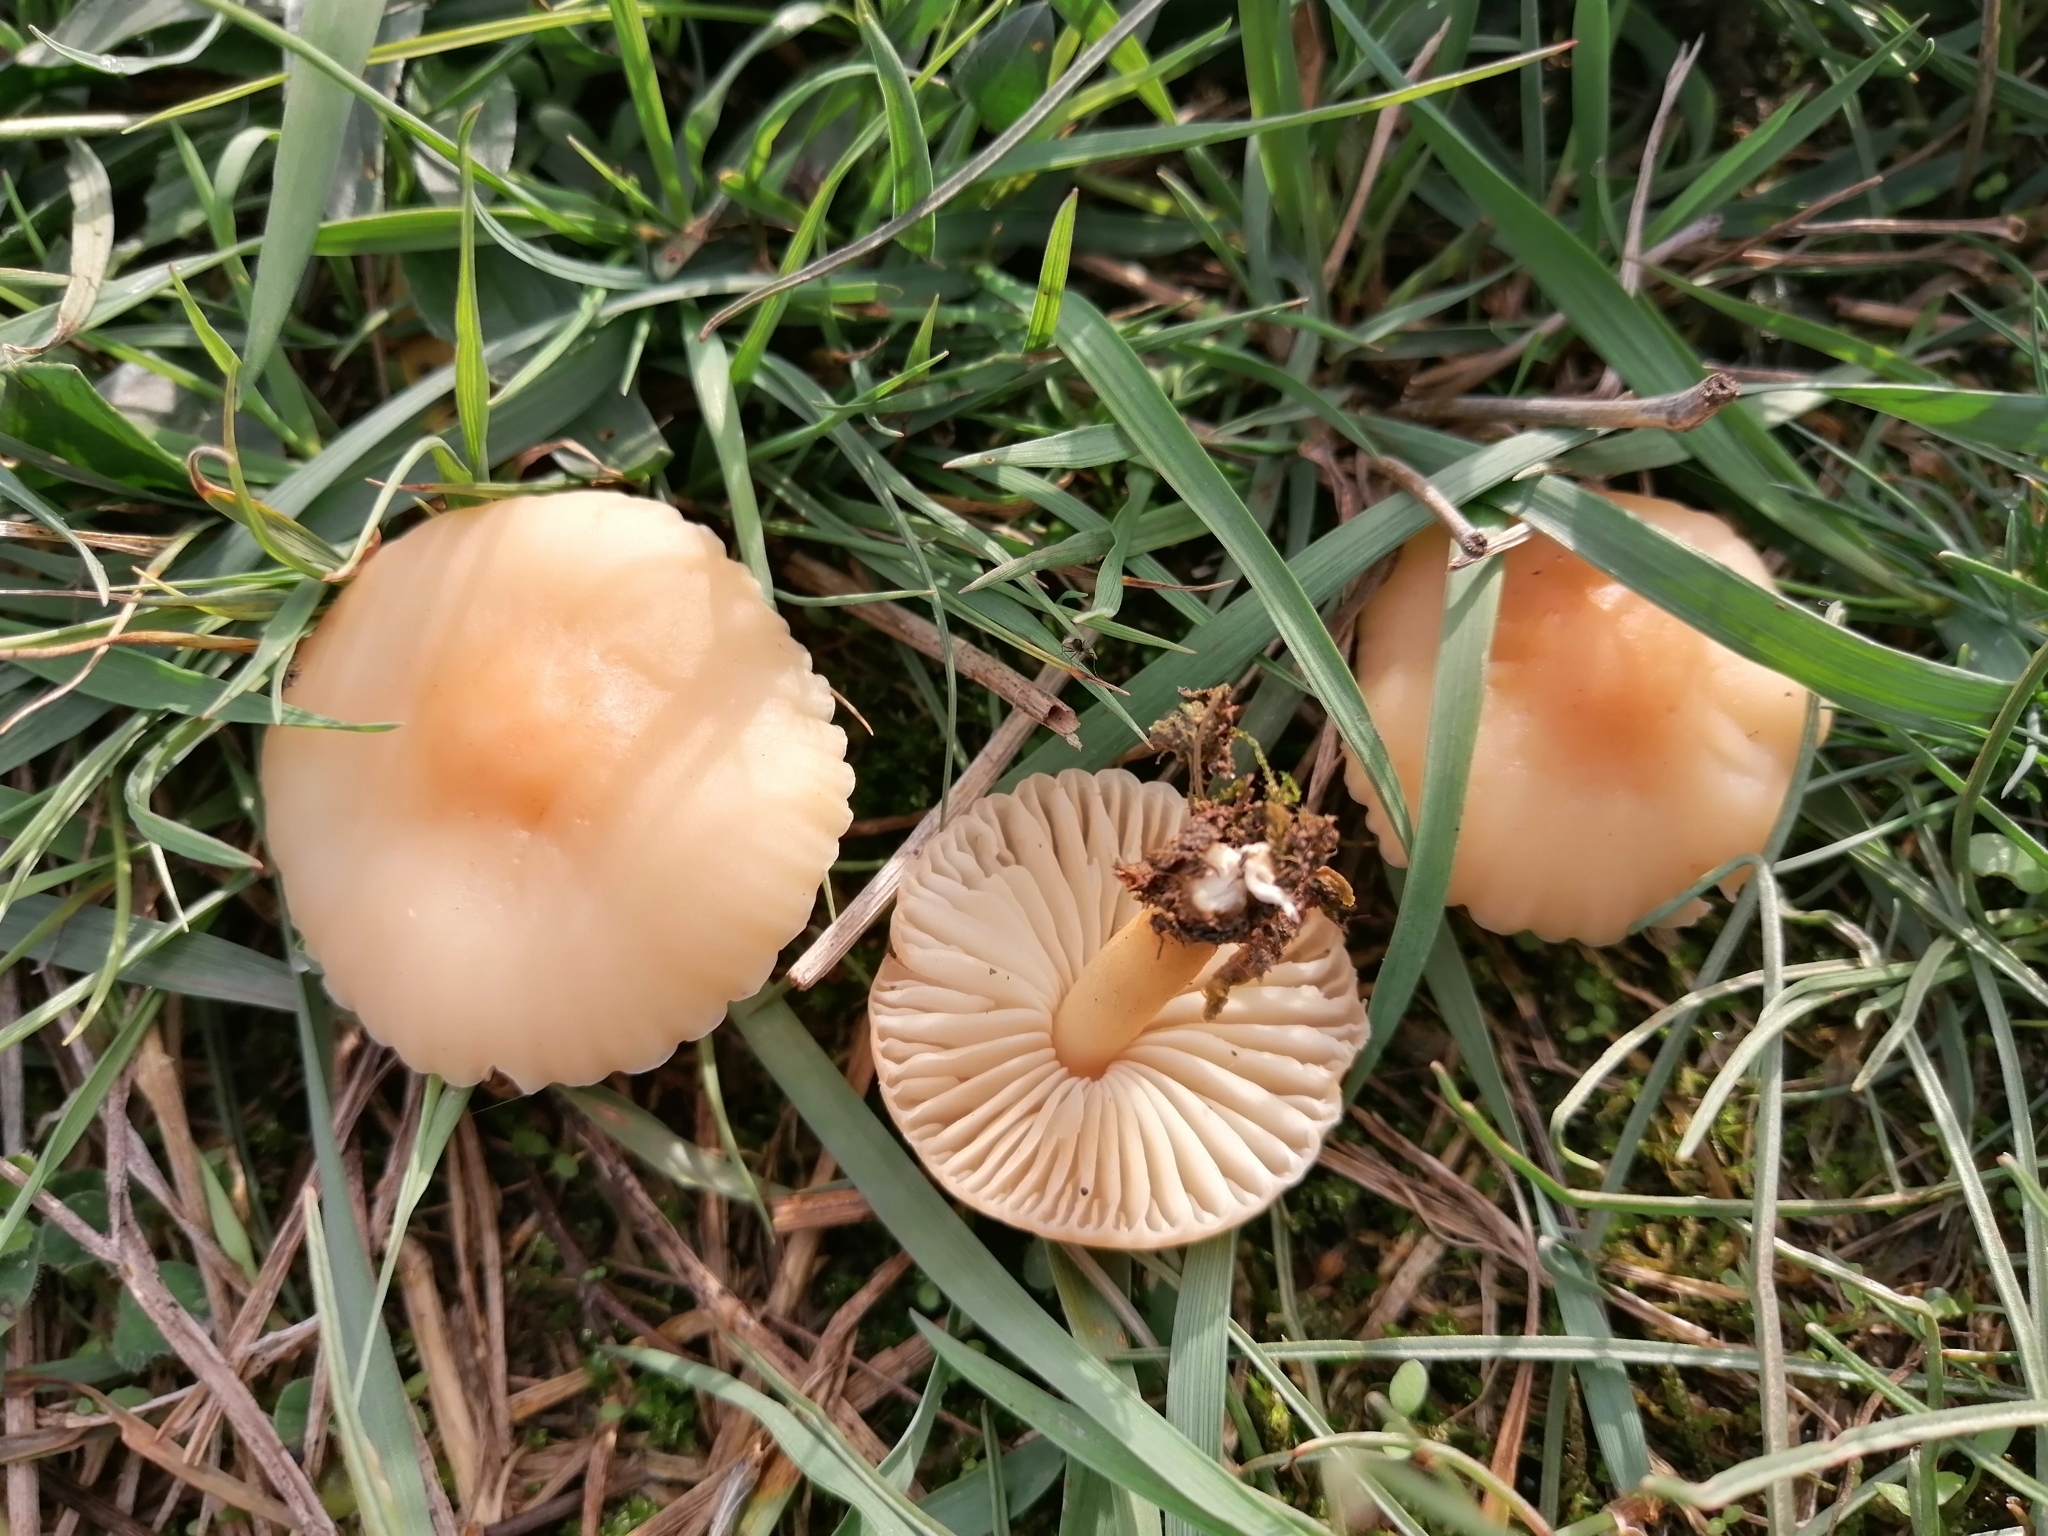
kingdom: Fungi
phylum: Basidiomycota
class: Agaricomycetes
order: Agaricales
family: Marasmiaceae
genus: Marasmius
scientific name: Marasmius oreades
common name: Fairy ring champignon
